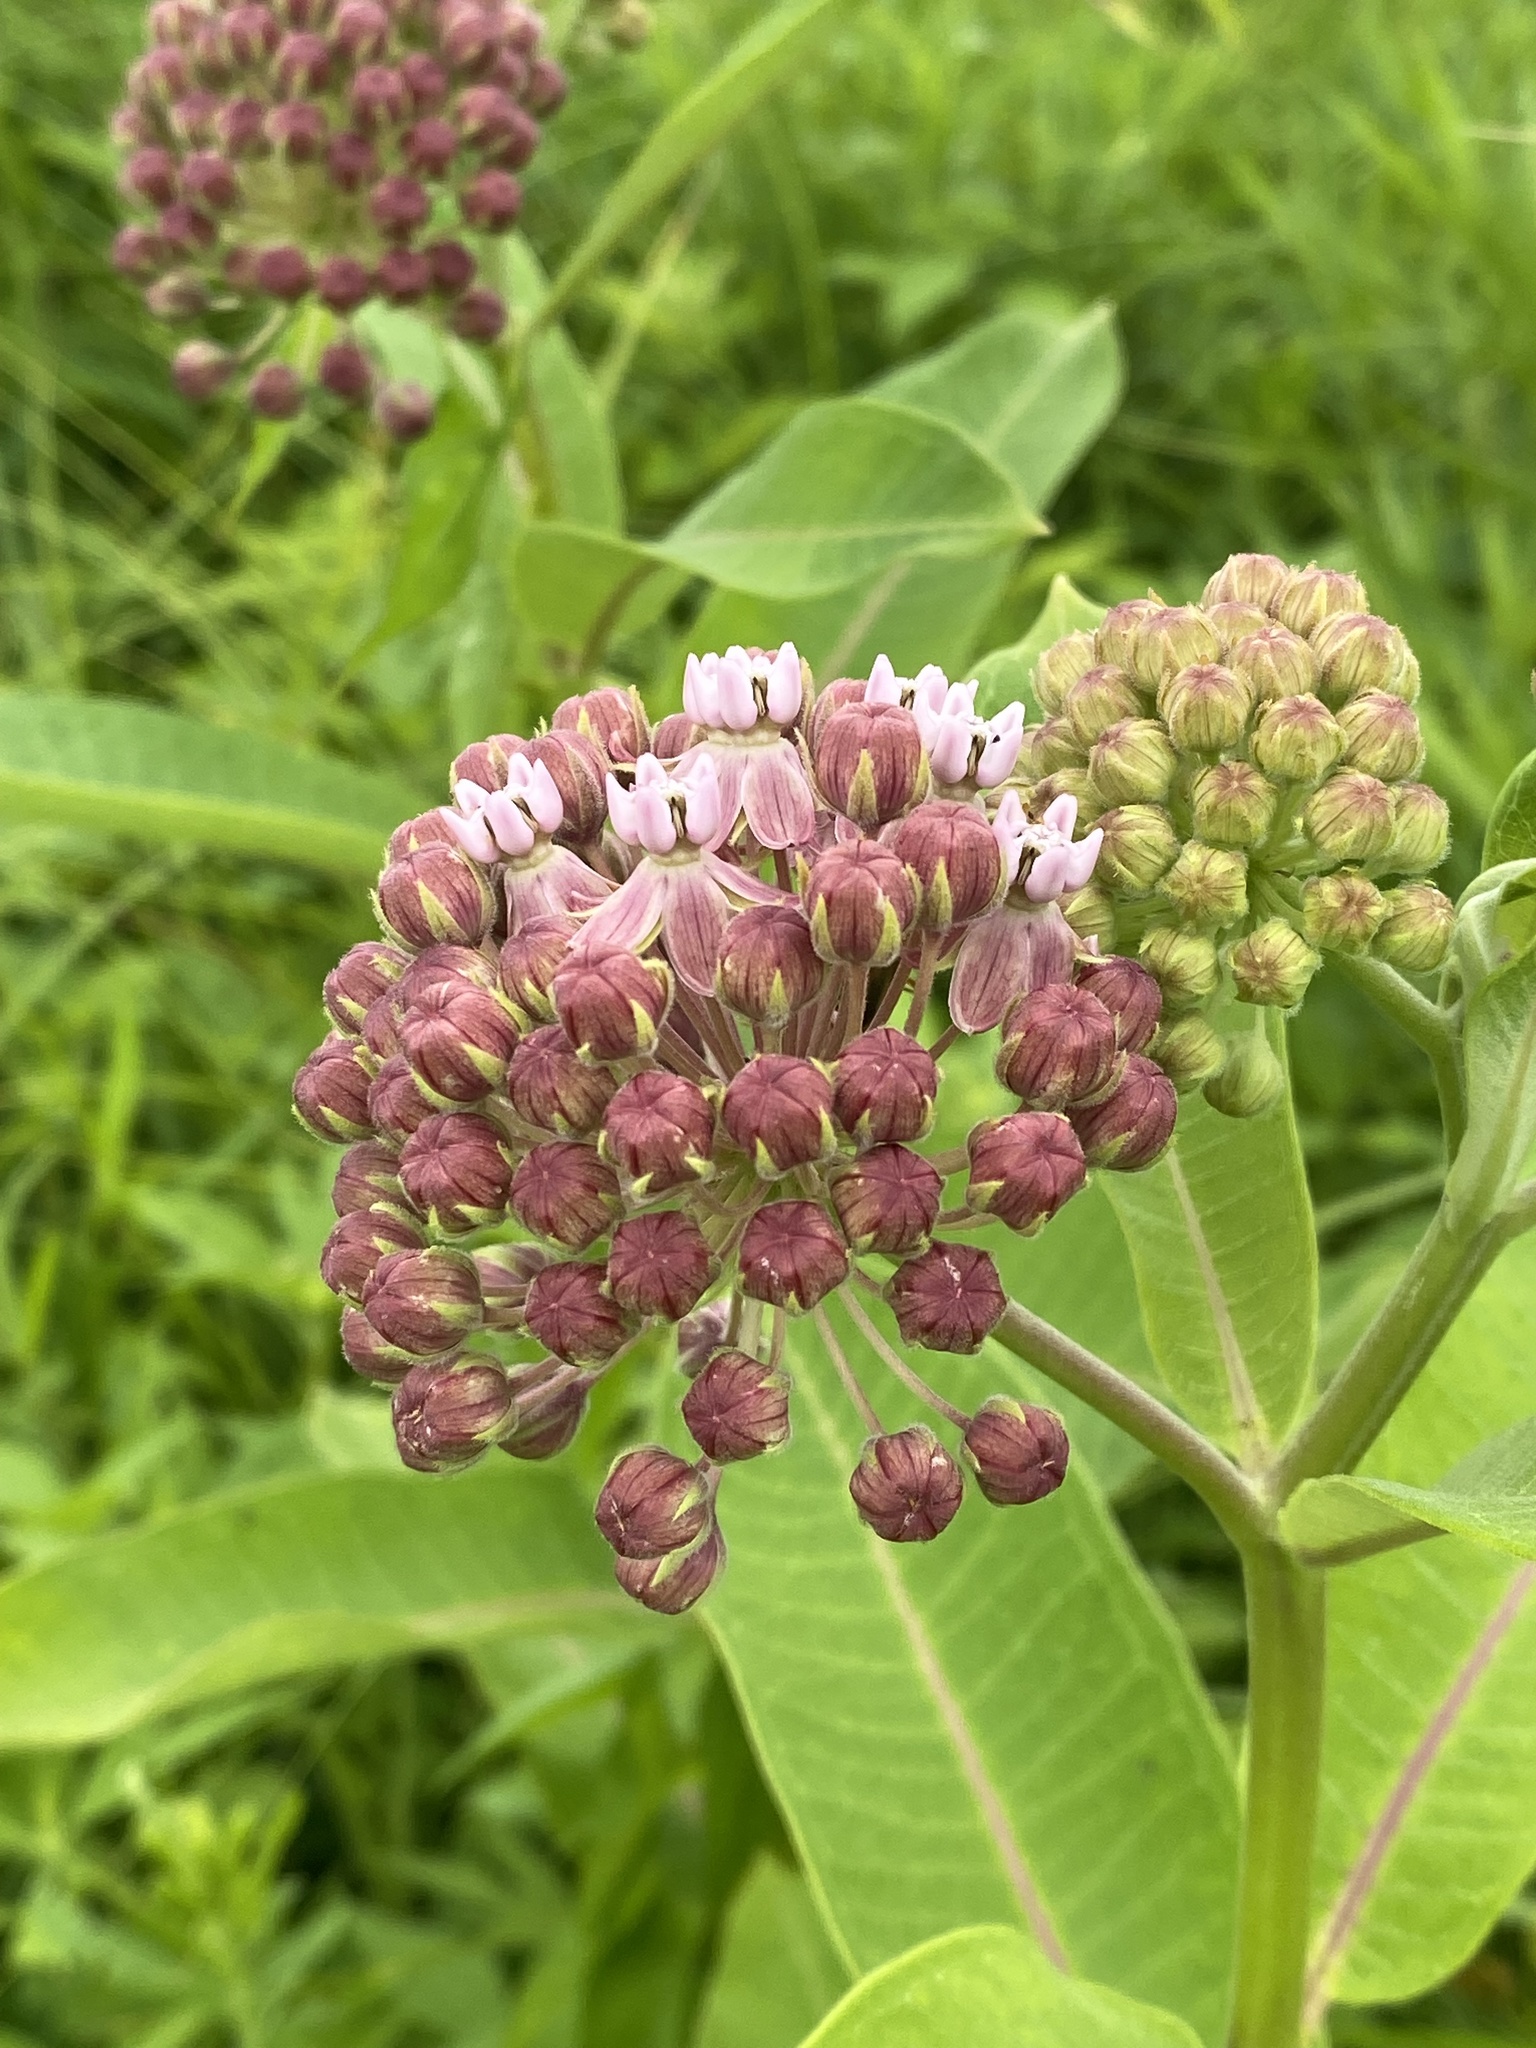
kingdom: Plantae
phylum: Tracheophyta
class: Magnoliopsida
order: Gentianales
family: Apocynaceae
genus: Asclepias
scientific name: Asclepias syriaca
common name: Common milkweed
